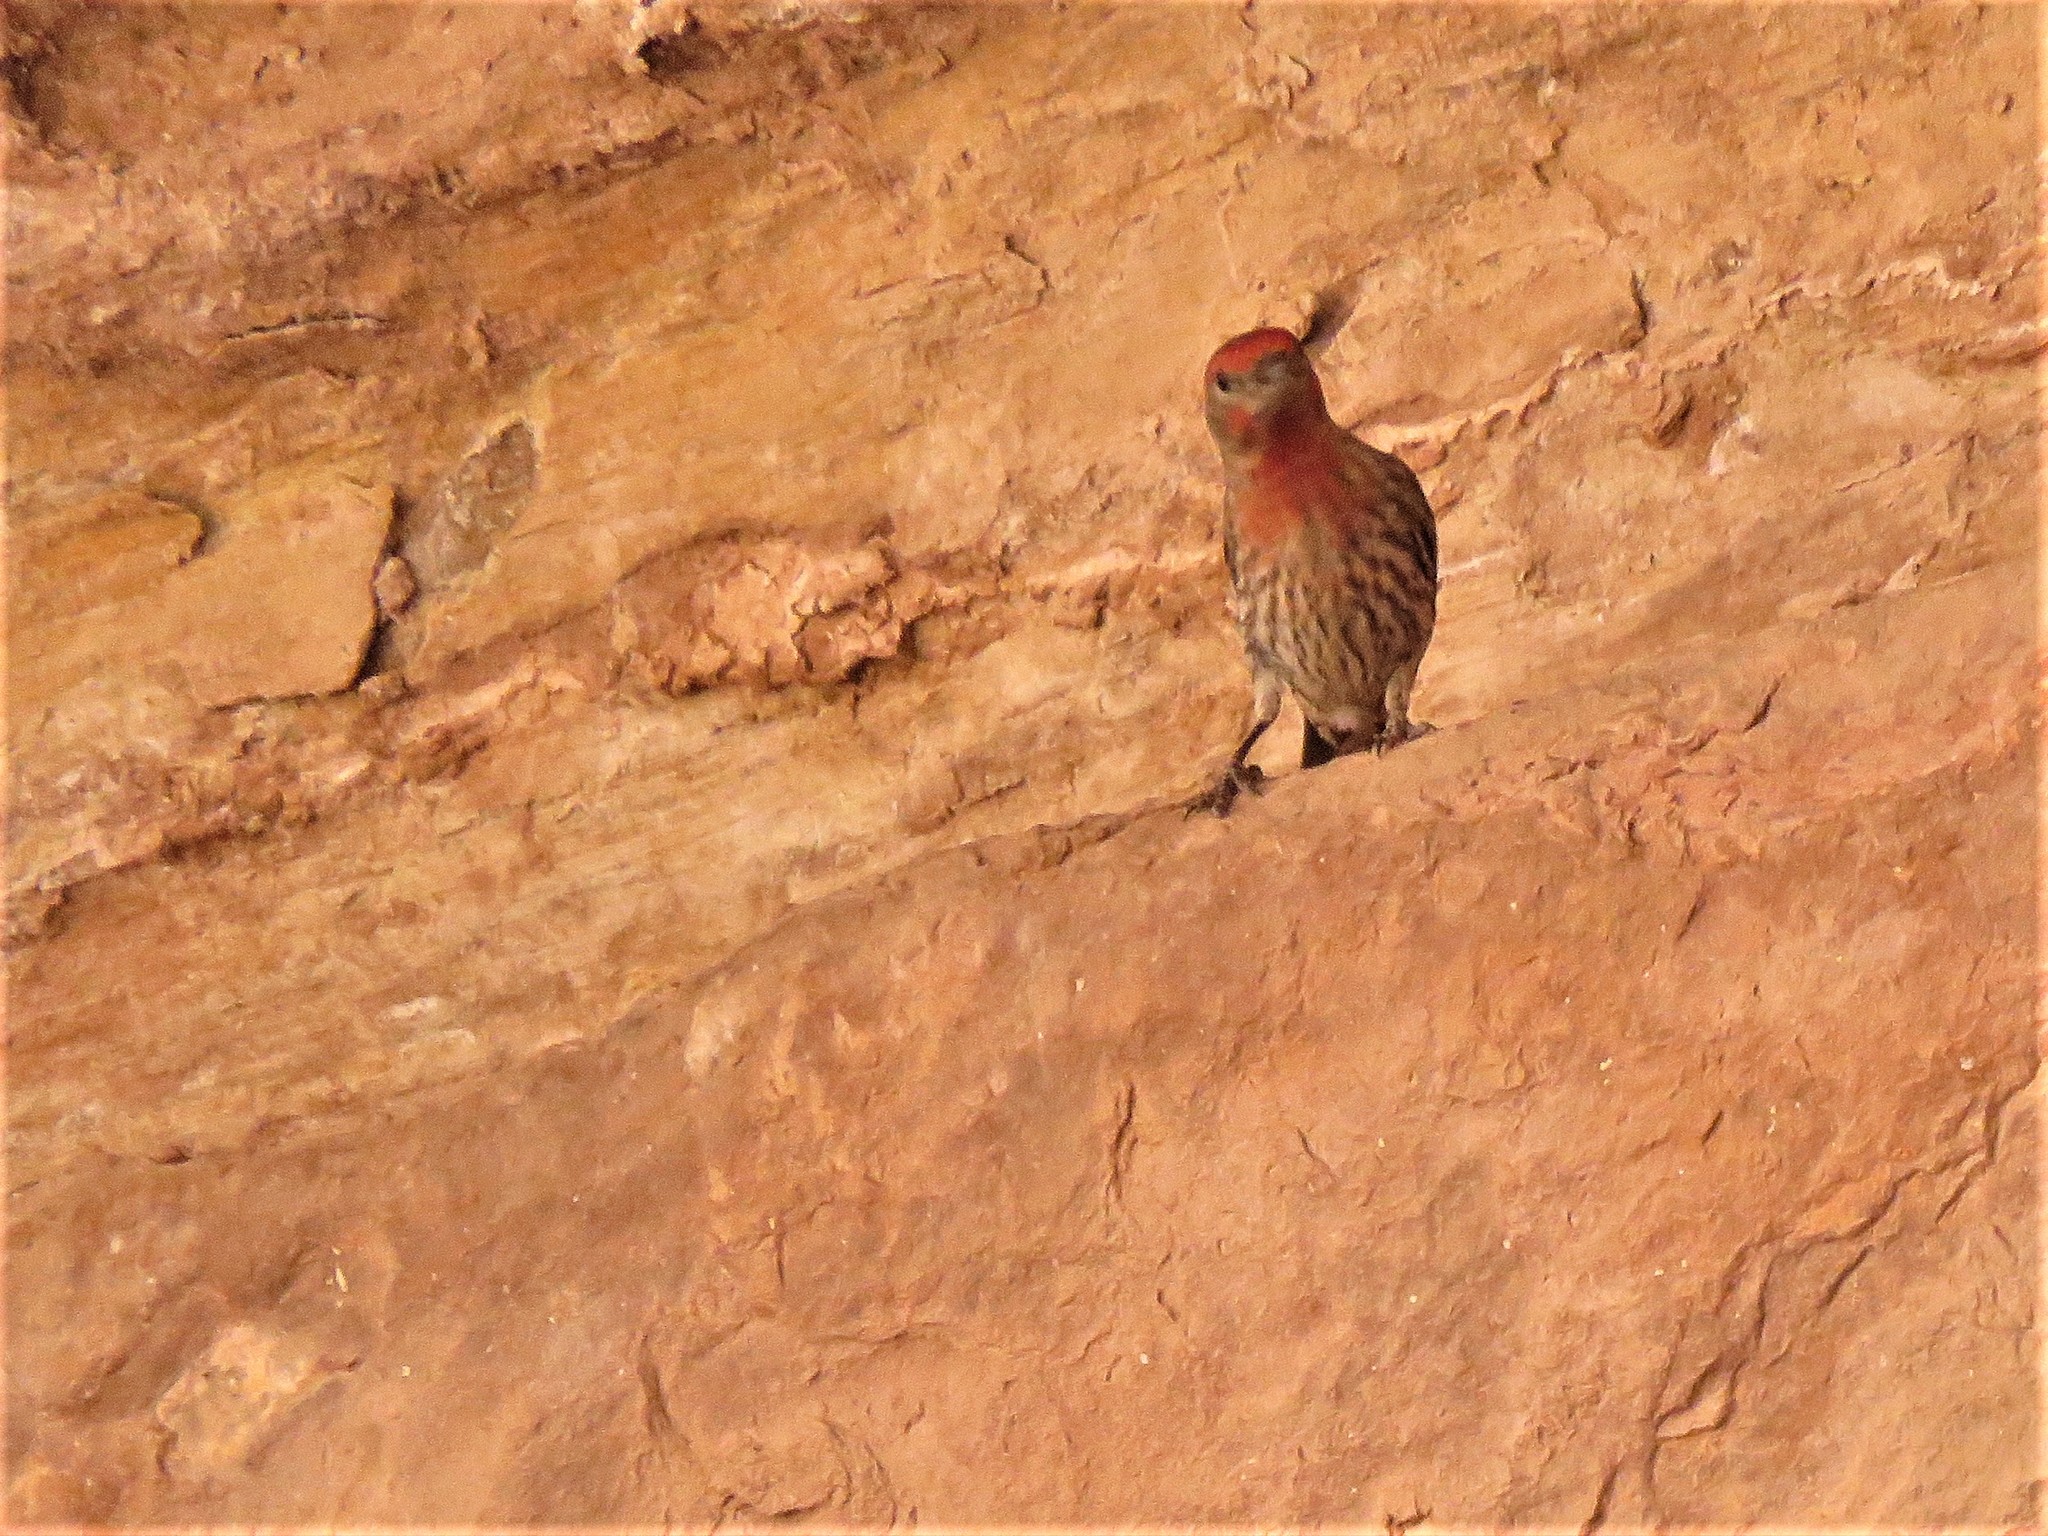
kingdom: Animalia
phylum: Chordata
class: Aves
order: Passeriformes
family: Fringillidae
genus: Haemorhous
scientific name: Haemorhous mexicanus
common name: House finch
